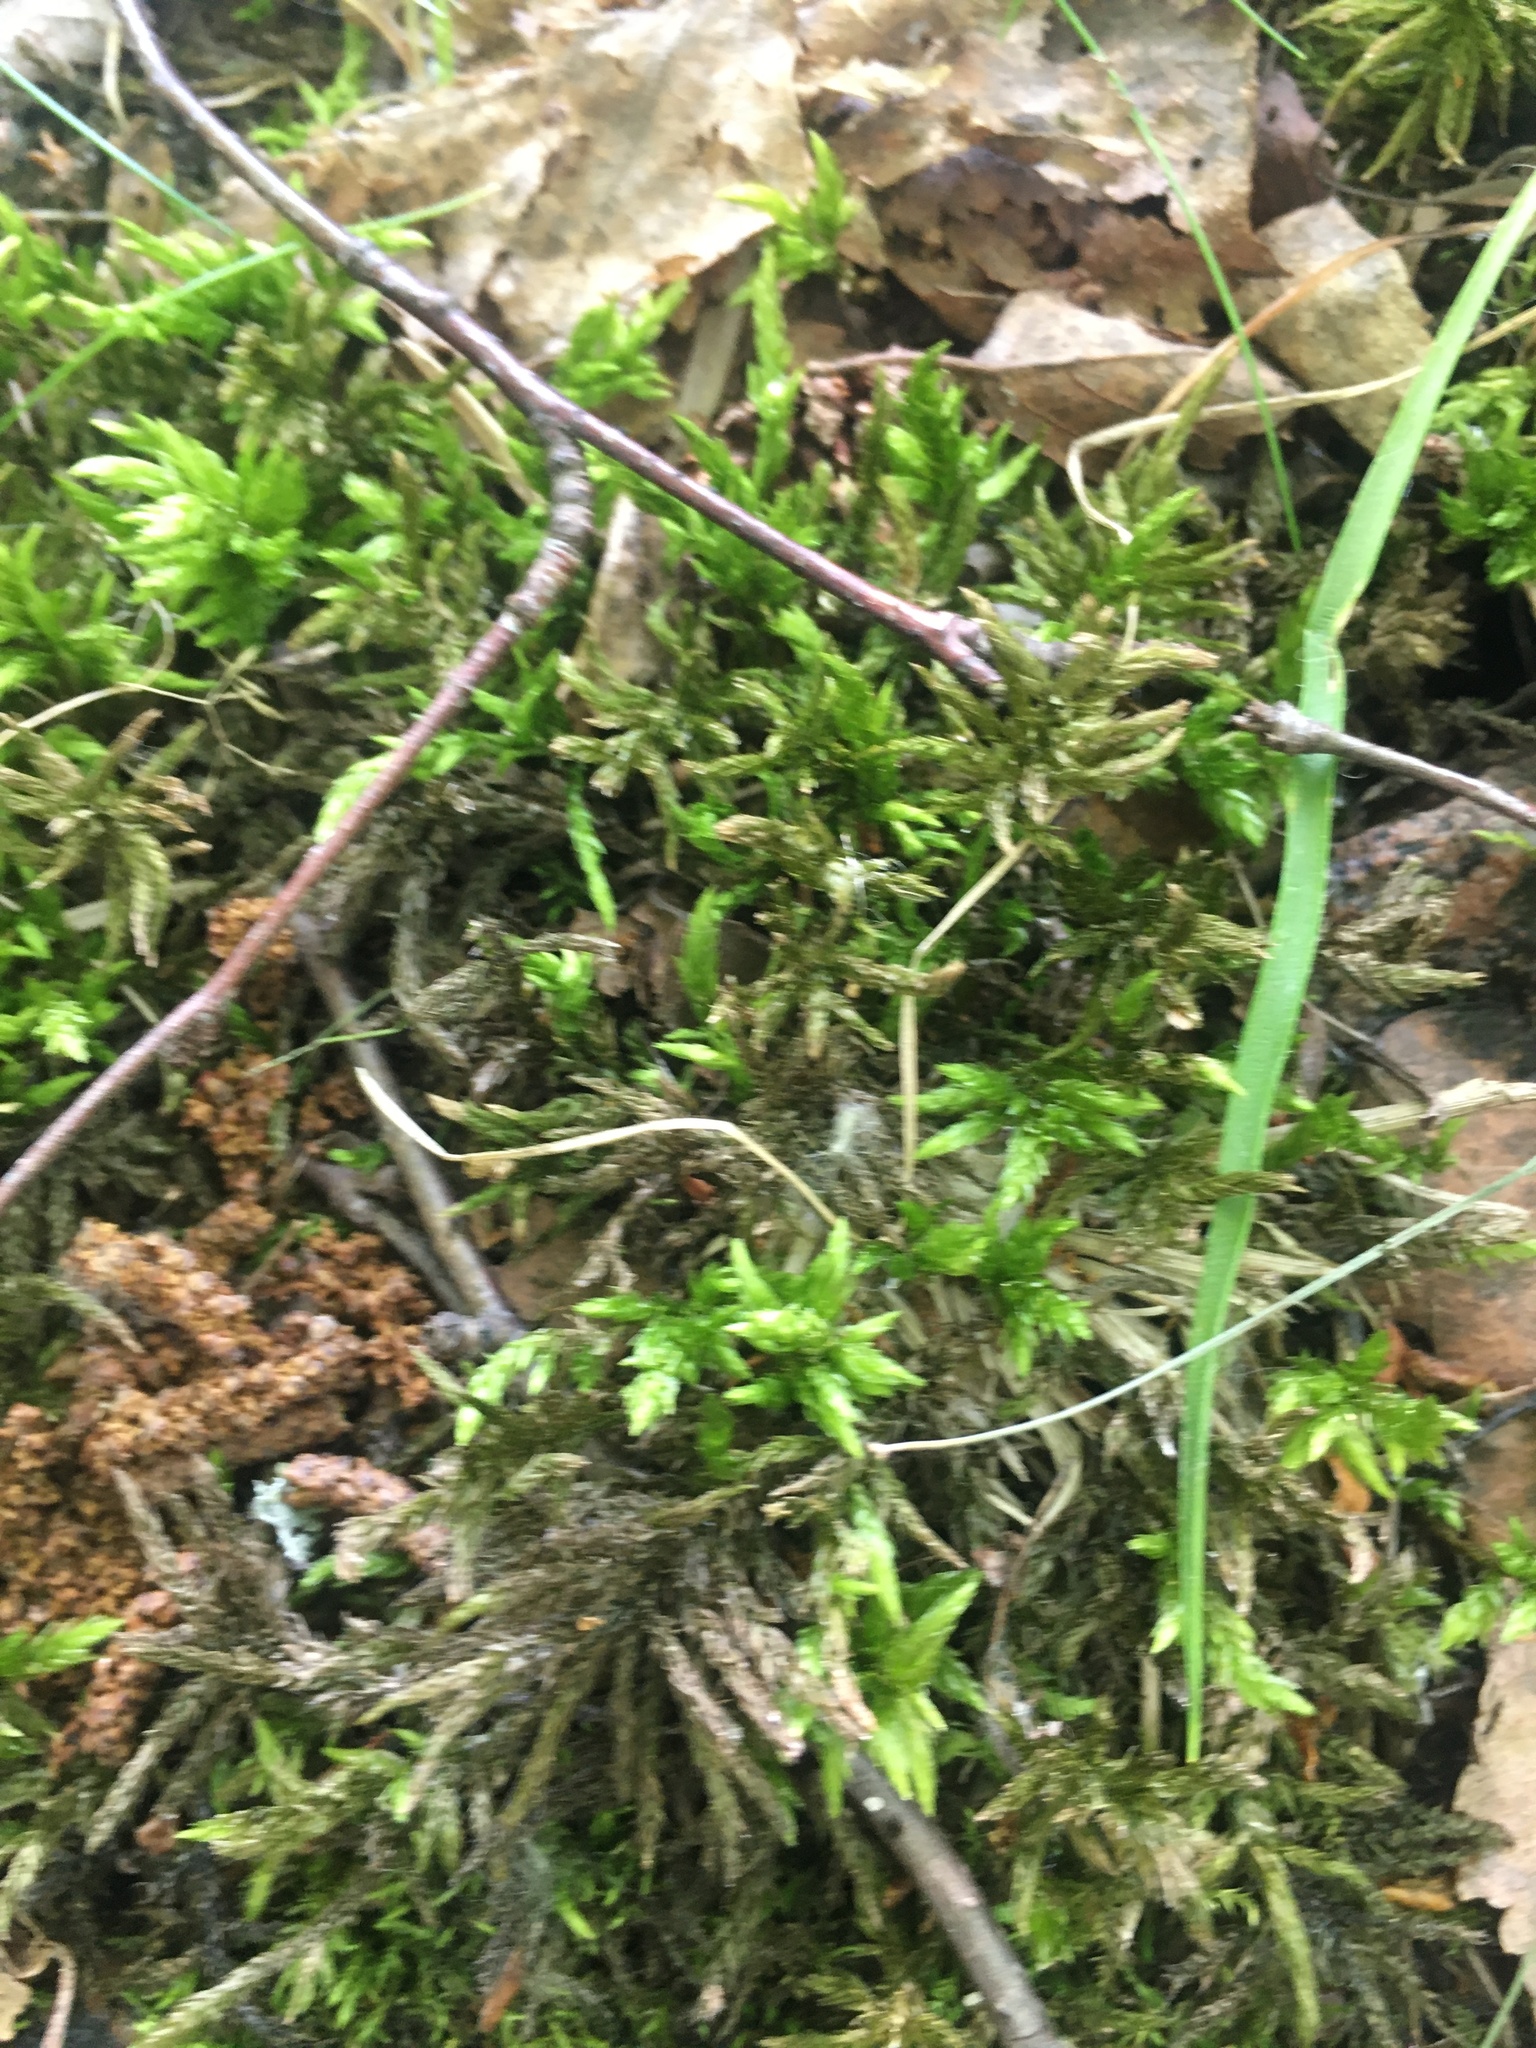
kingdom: Plantae
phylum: Bryophyta
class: Bryopsida
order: Hypnales
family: Climaciaceae
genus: Climacium
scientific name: Climacium dendroides
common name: Northern tree moss
